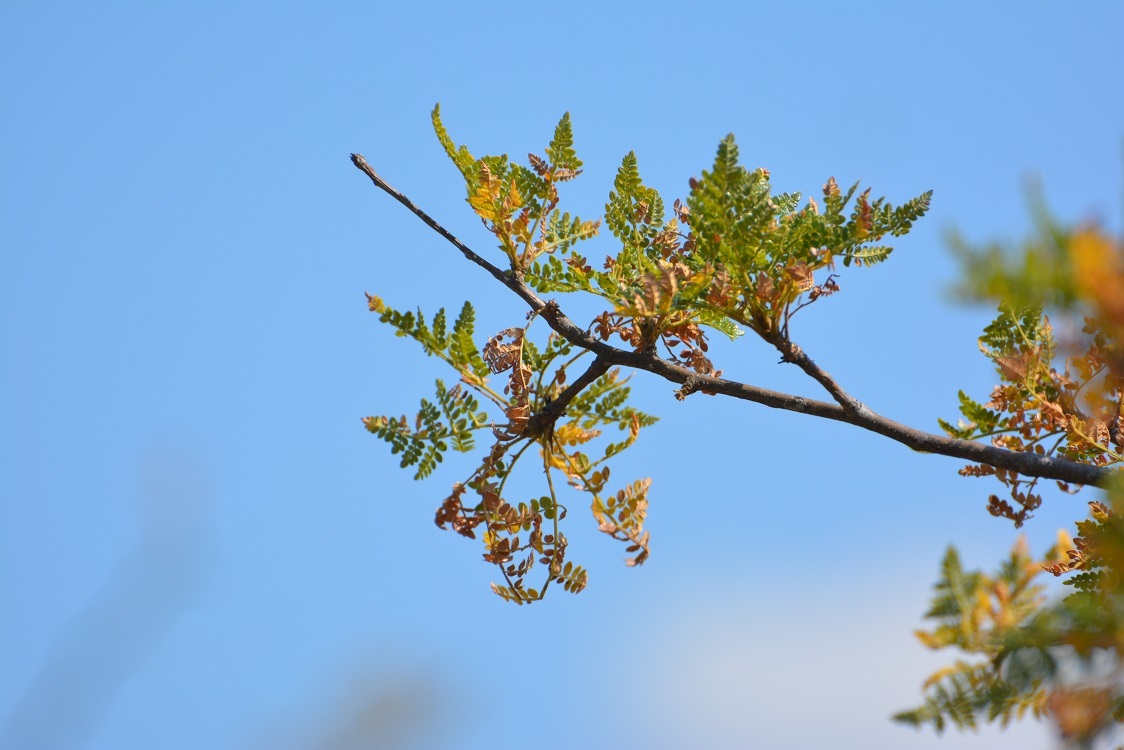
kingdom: Plantae
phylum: Tracheophyta
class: Magnoliopsida
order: Sapindales
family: Burseraceae
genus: Bursera
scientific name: Bursera bipinnata
